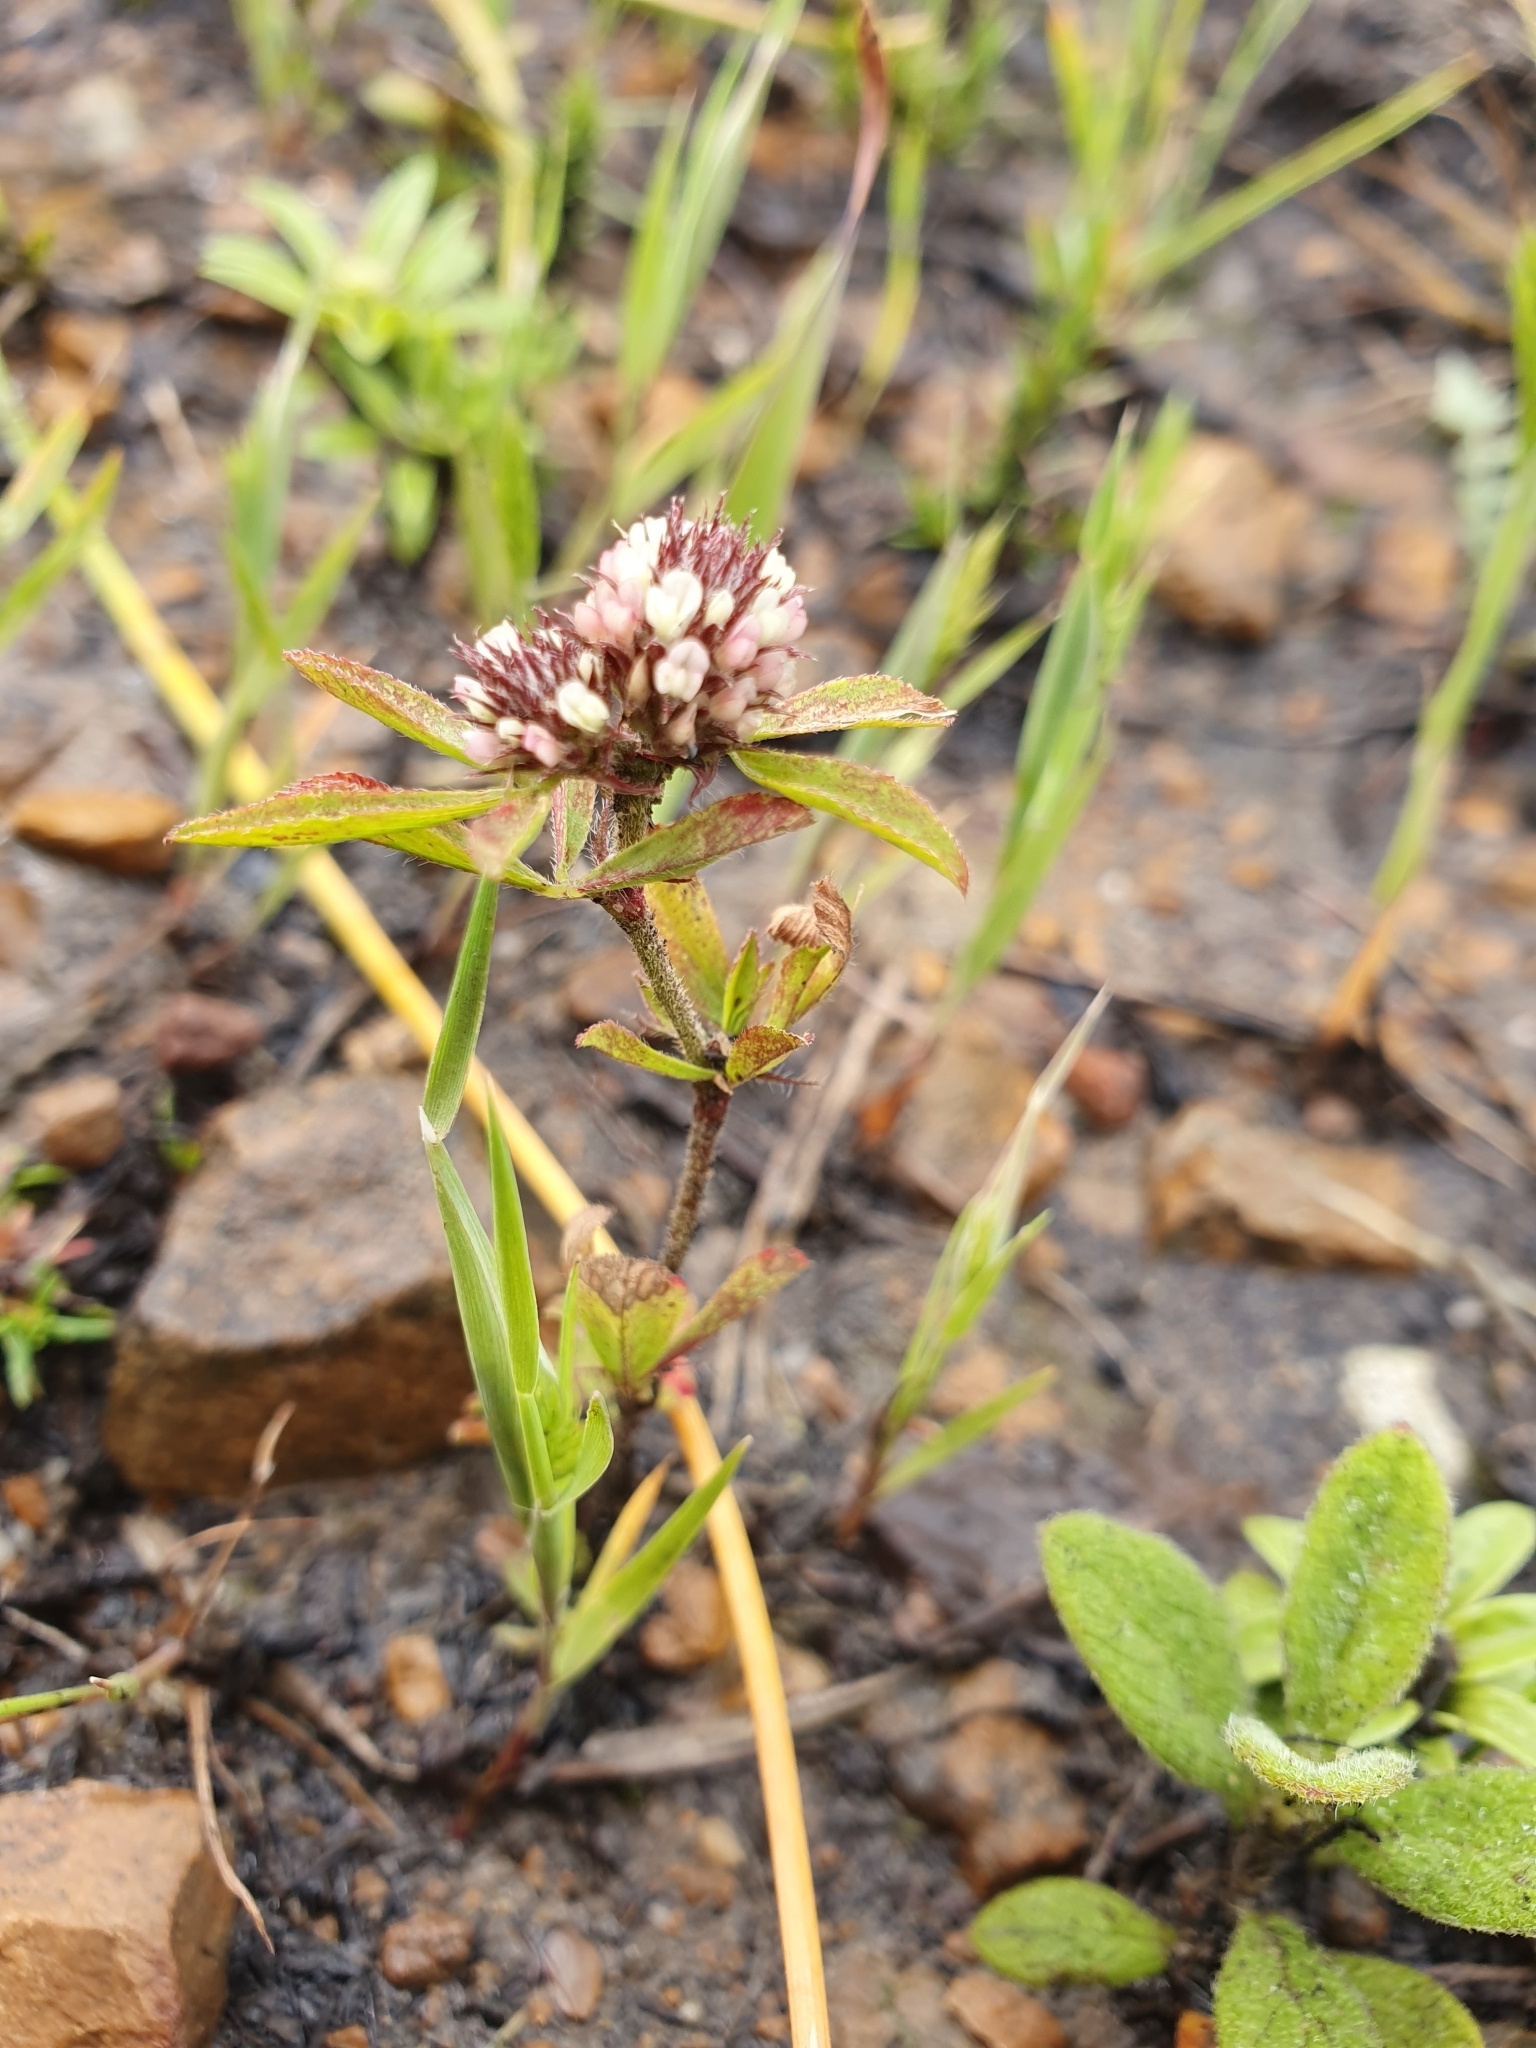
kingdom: Plantae
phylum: Tracheophyta
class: Magnoliopsida
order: Fabales
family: Fabaceae
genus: Trifolium
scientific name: Trifolium bocconei
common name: Twin-headed clover
